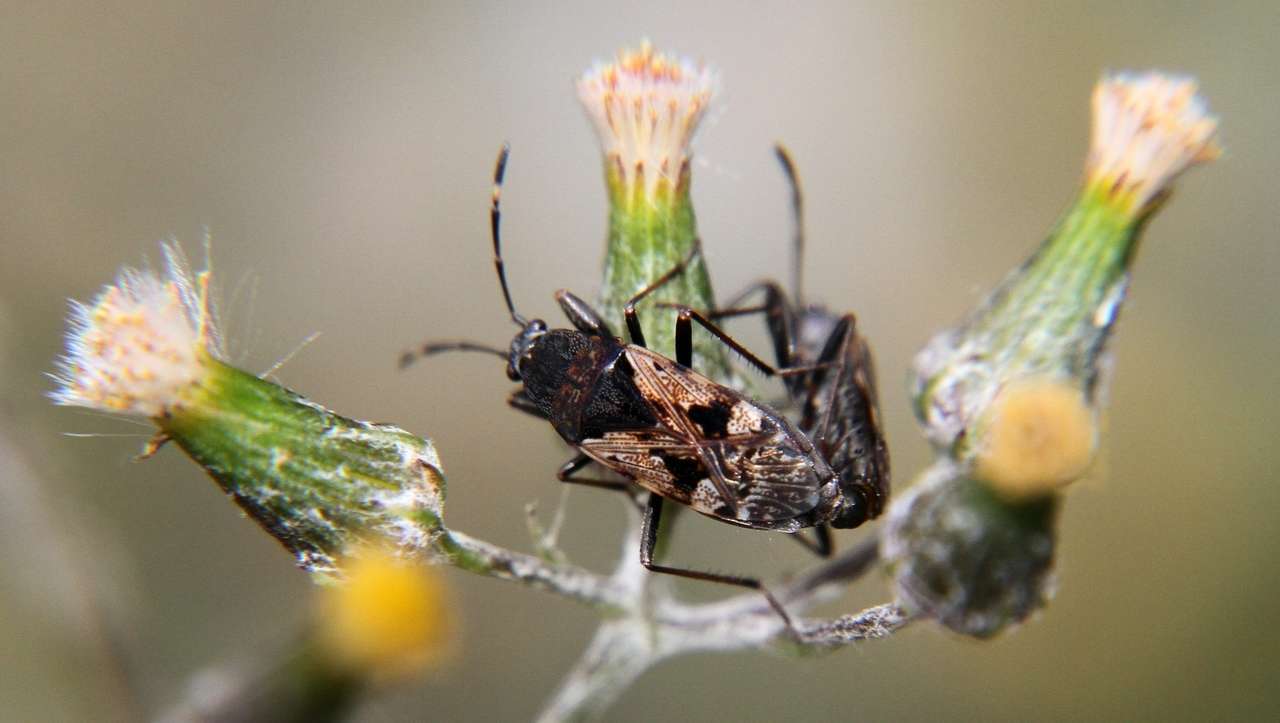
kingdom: Animalia
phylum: Arthropoda
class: Insecta
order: Hemiptera
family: Rhyparochromidae
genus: Euander
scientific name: Euander lacertosus
